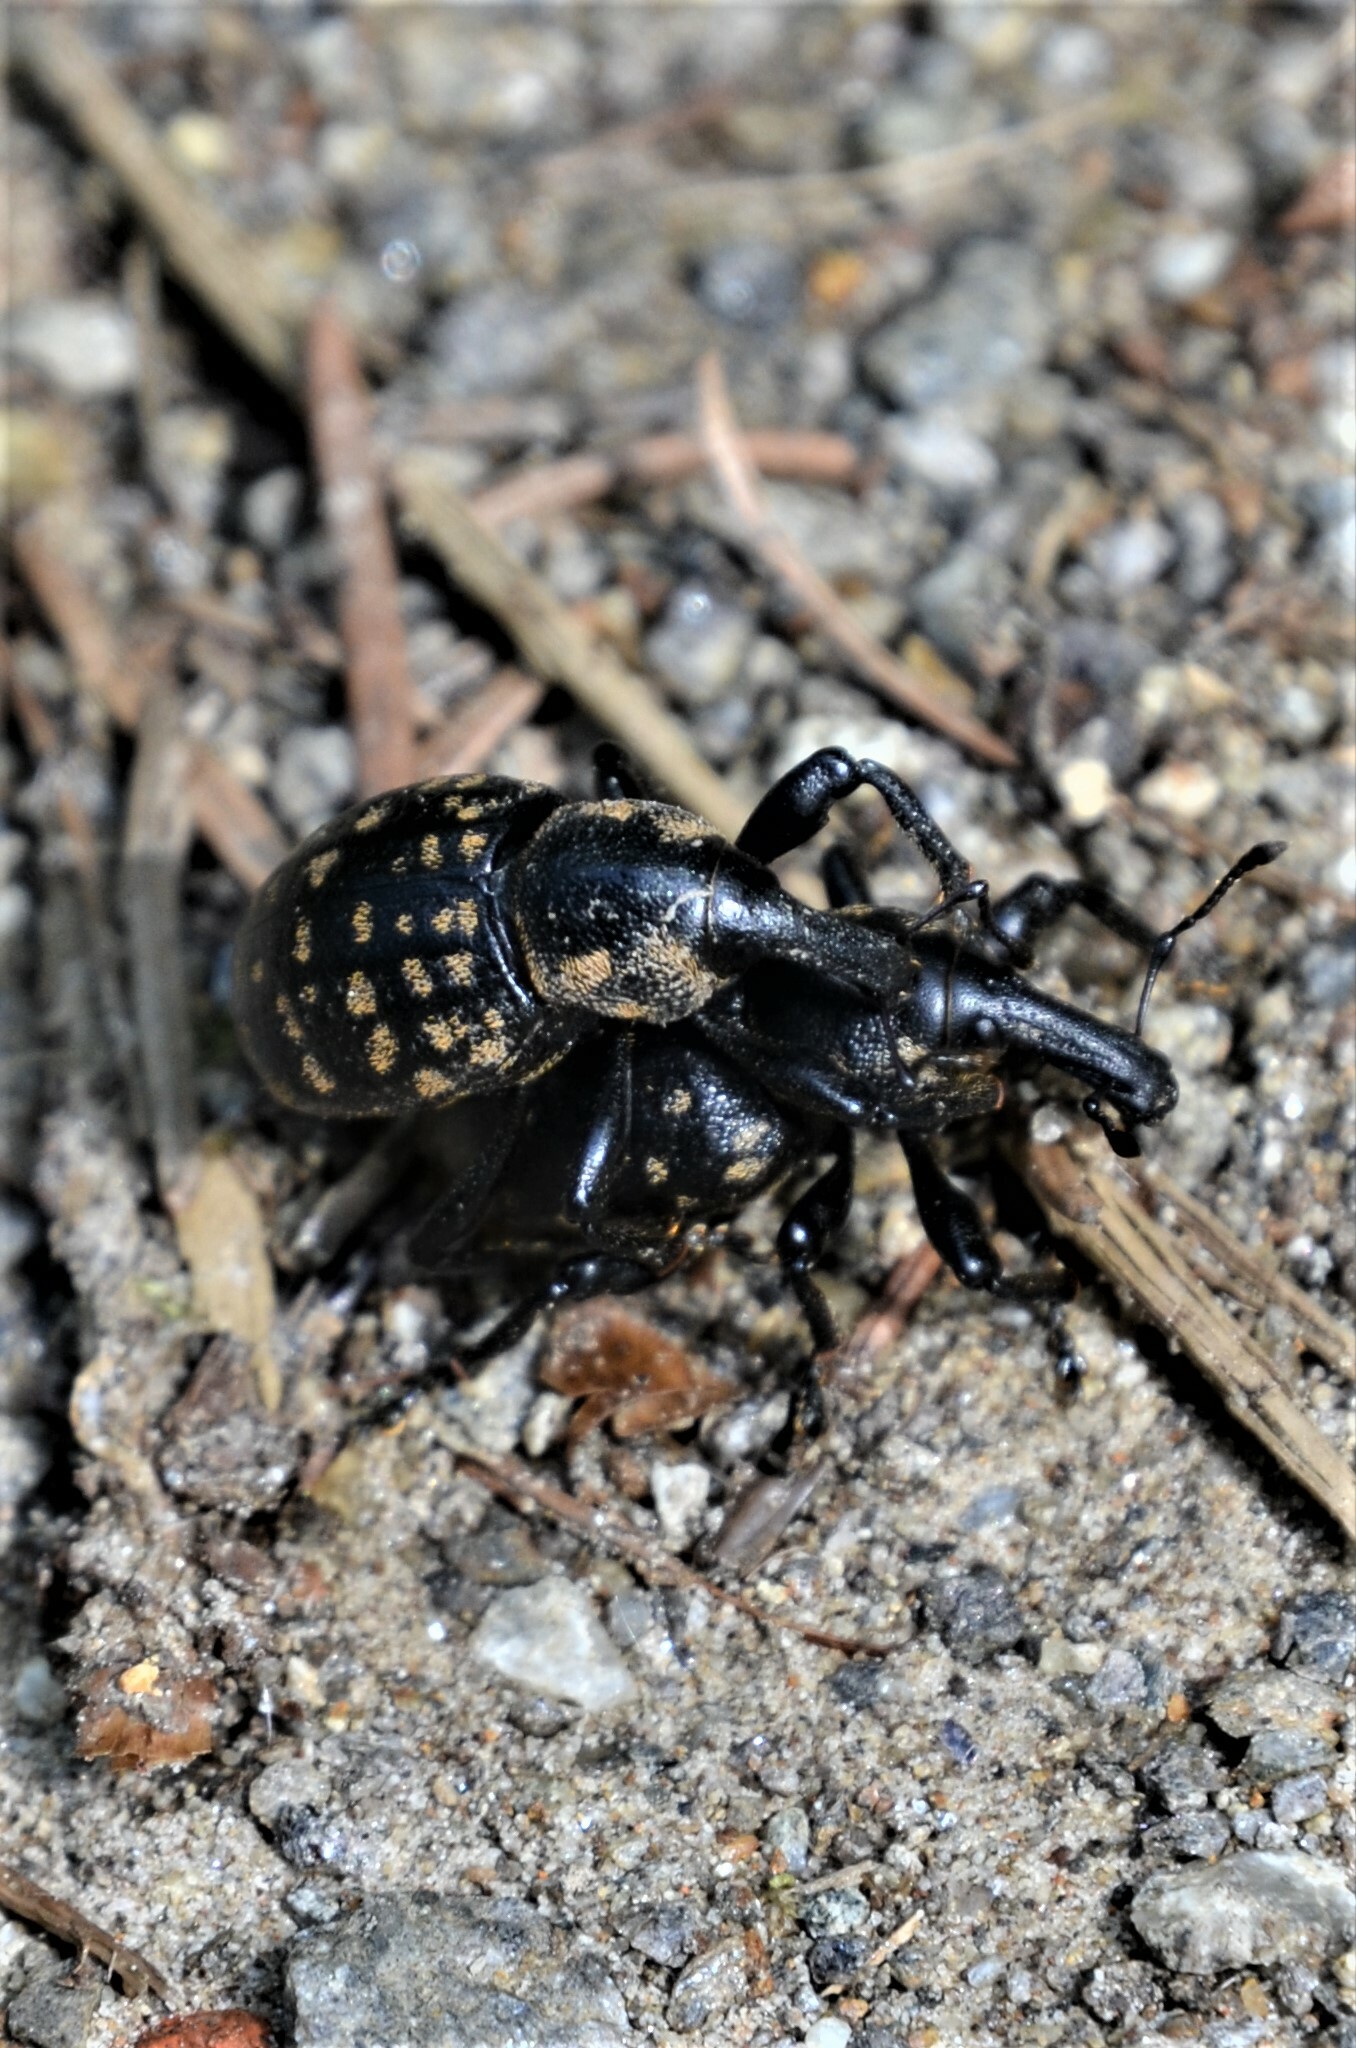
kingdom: Animalia
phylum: Arthropoda
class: Insecta
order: Coleoptera
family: Curculionidae
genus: Liparus
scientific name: Liparus glabrirostris
